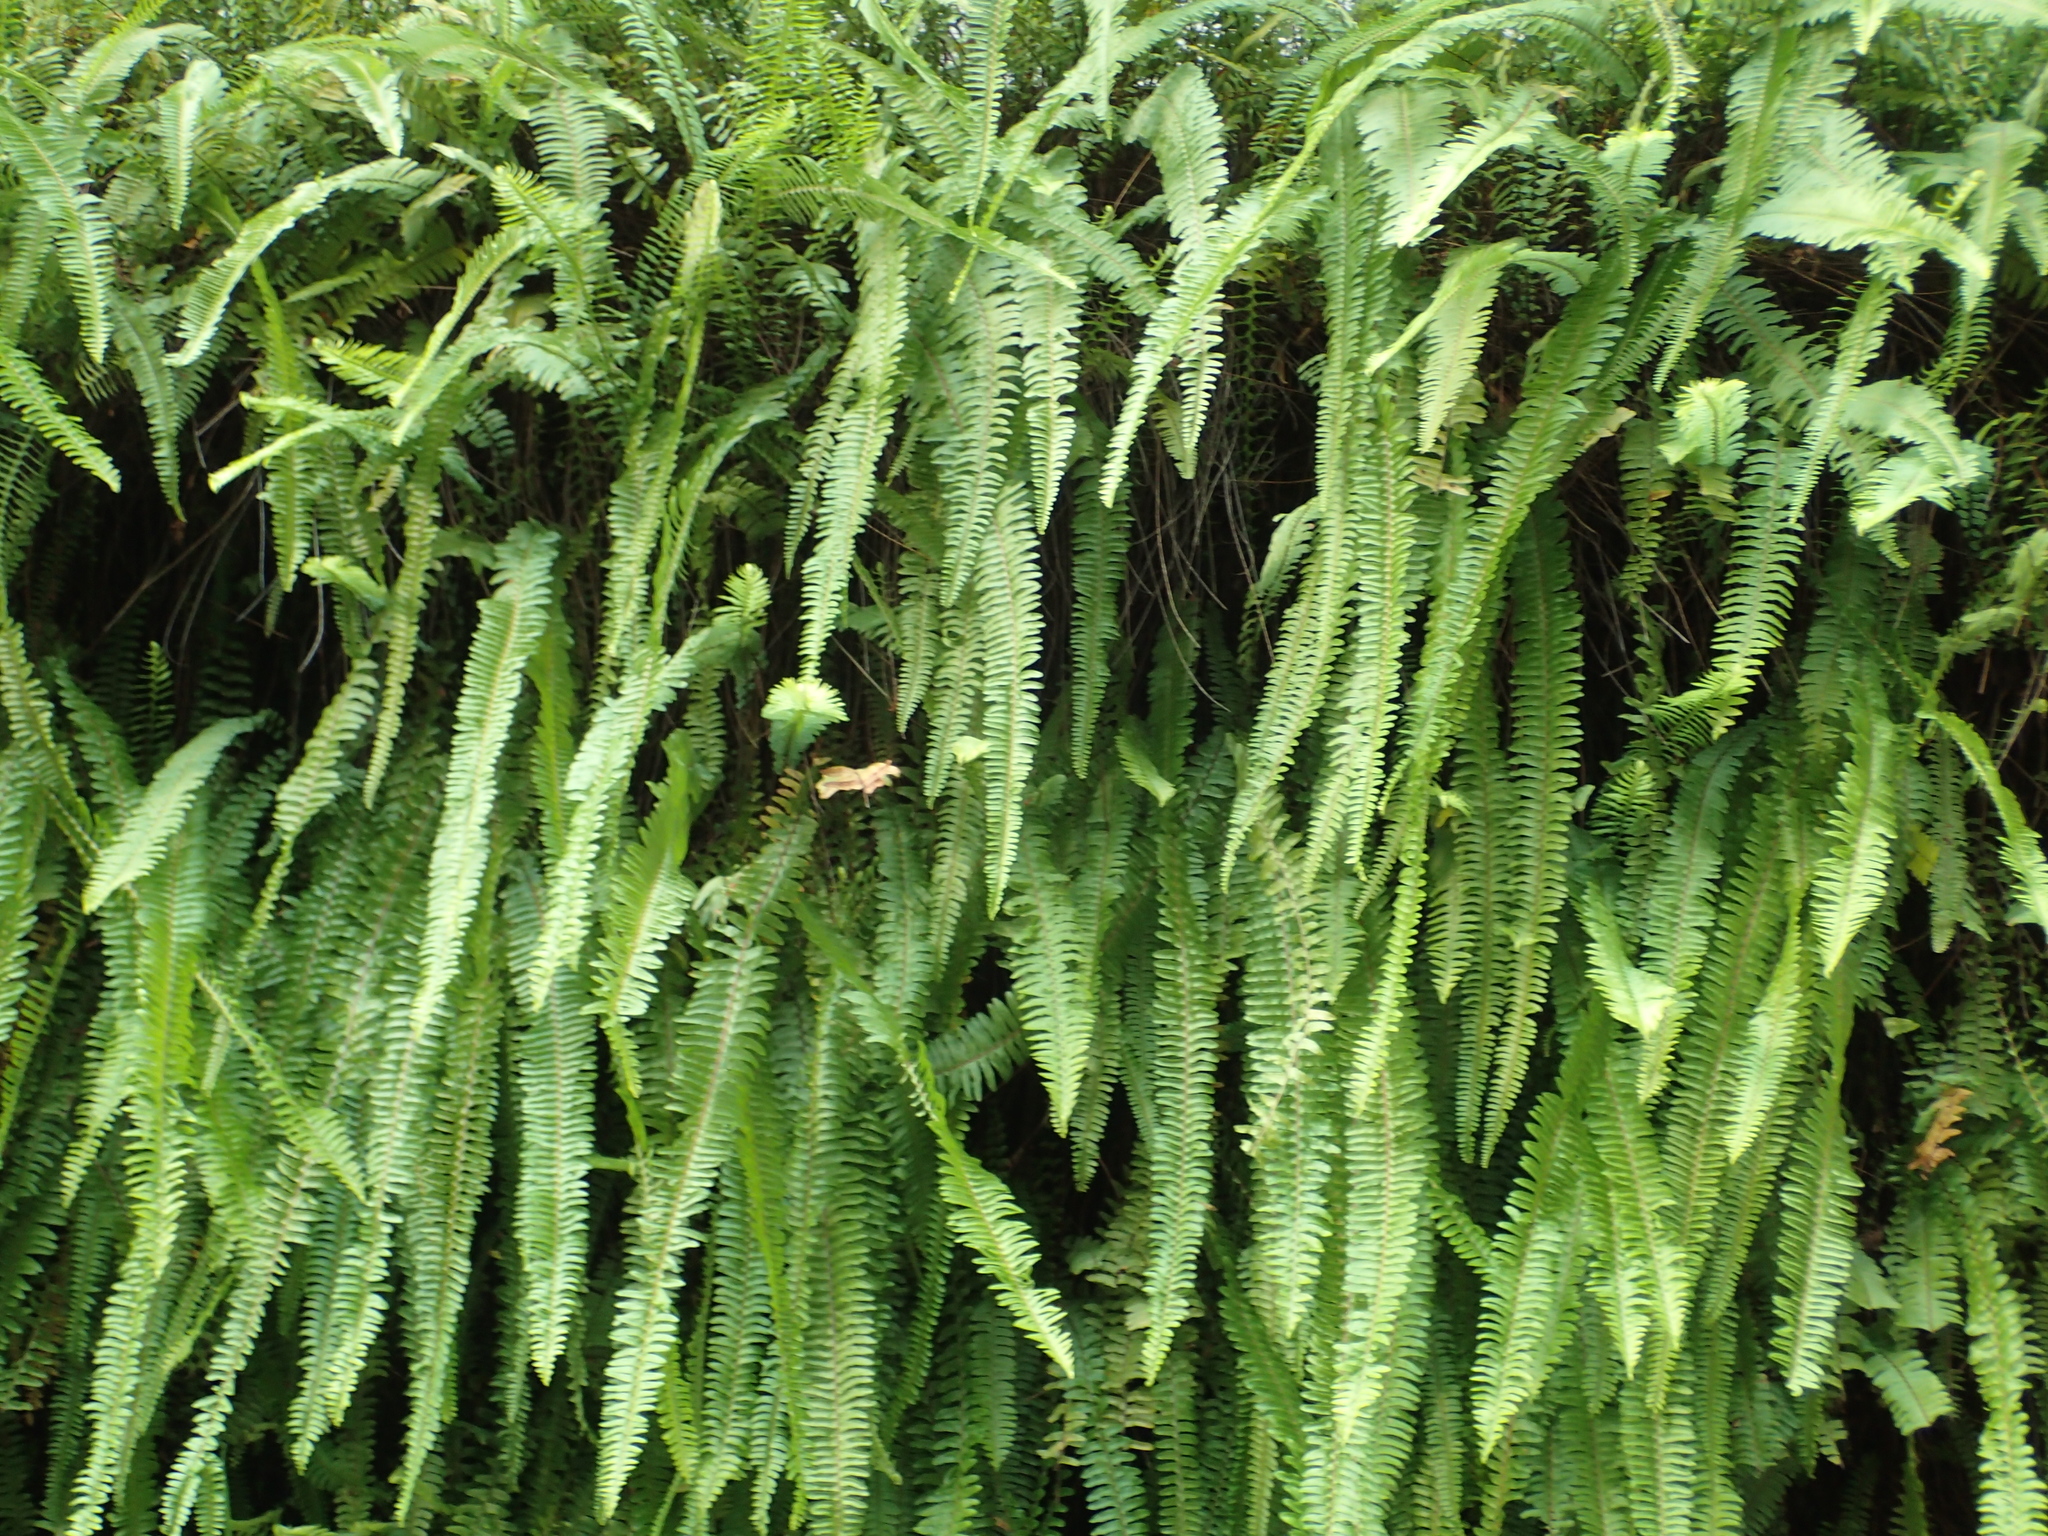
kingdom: Plantae
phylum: Tracheophyta
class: Polypodiopsida
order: Polypodiales
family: Nephrolepidaceae
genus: Nephrolepis
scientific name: Nephrolepis cordifolia
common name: Narrow swordfern
